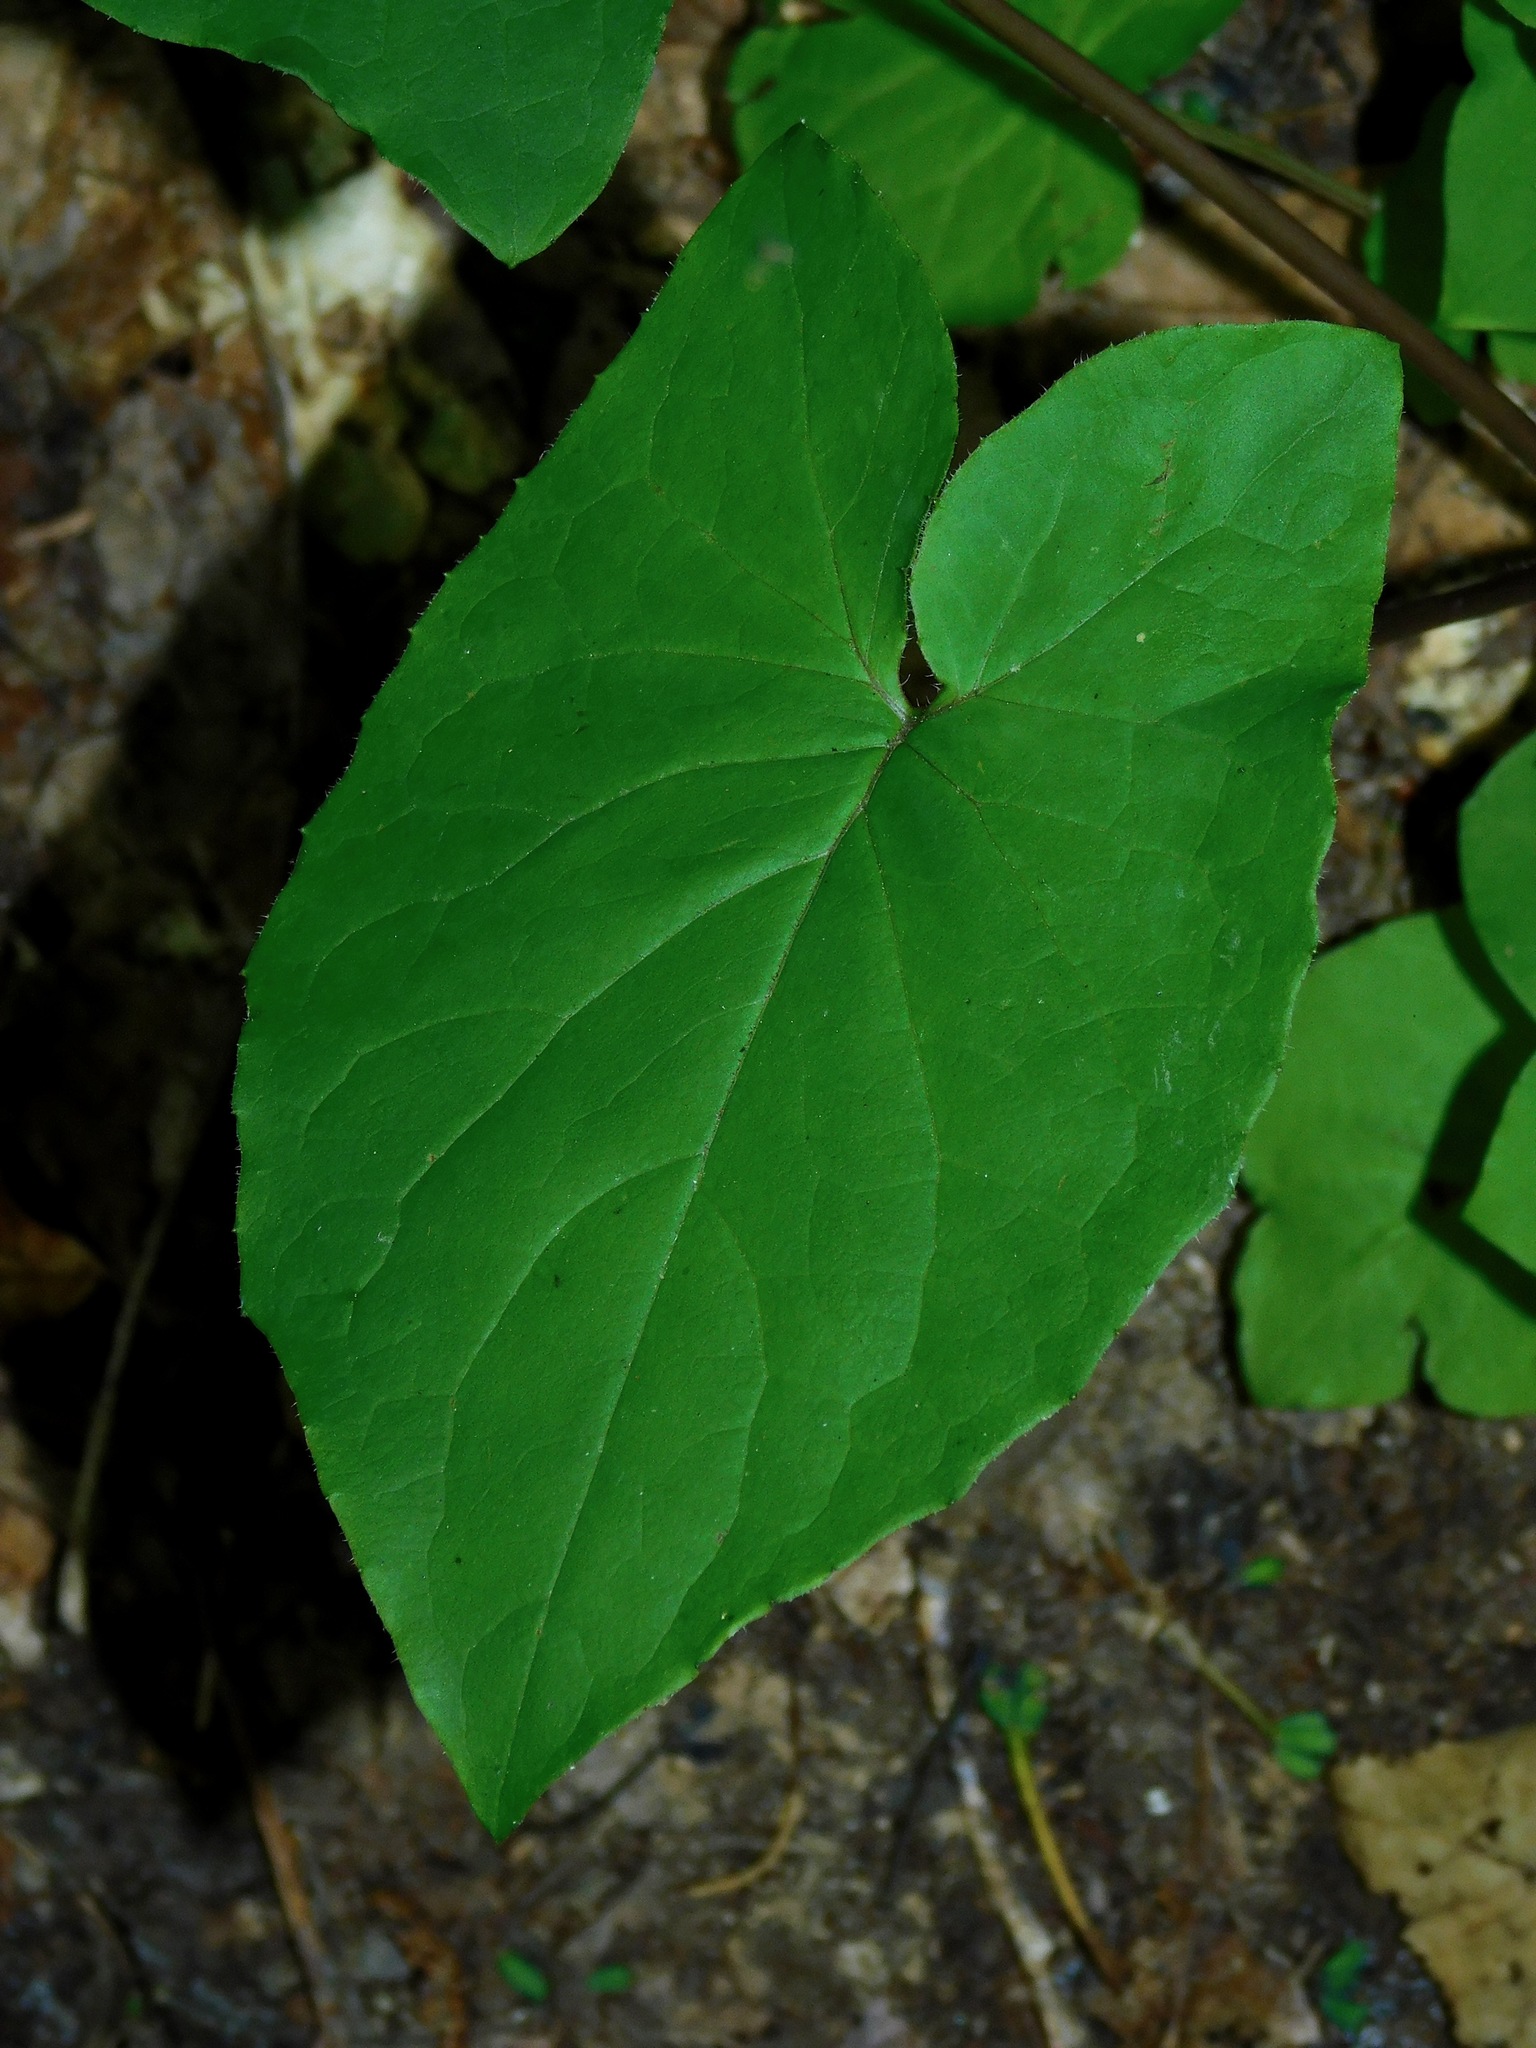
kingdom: Plantae
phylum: Tracheophyta
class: Magnoliopsida
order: Asterales
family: Asteraceae
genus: Nabalus
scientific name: Nabalus roanensis
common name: Roan mountain rattlesnakeroot
